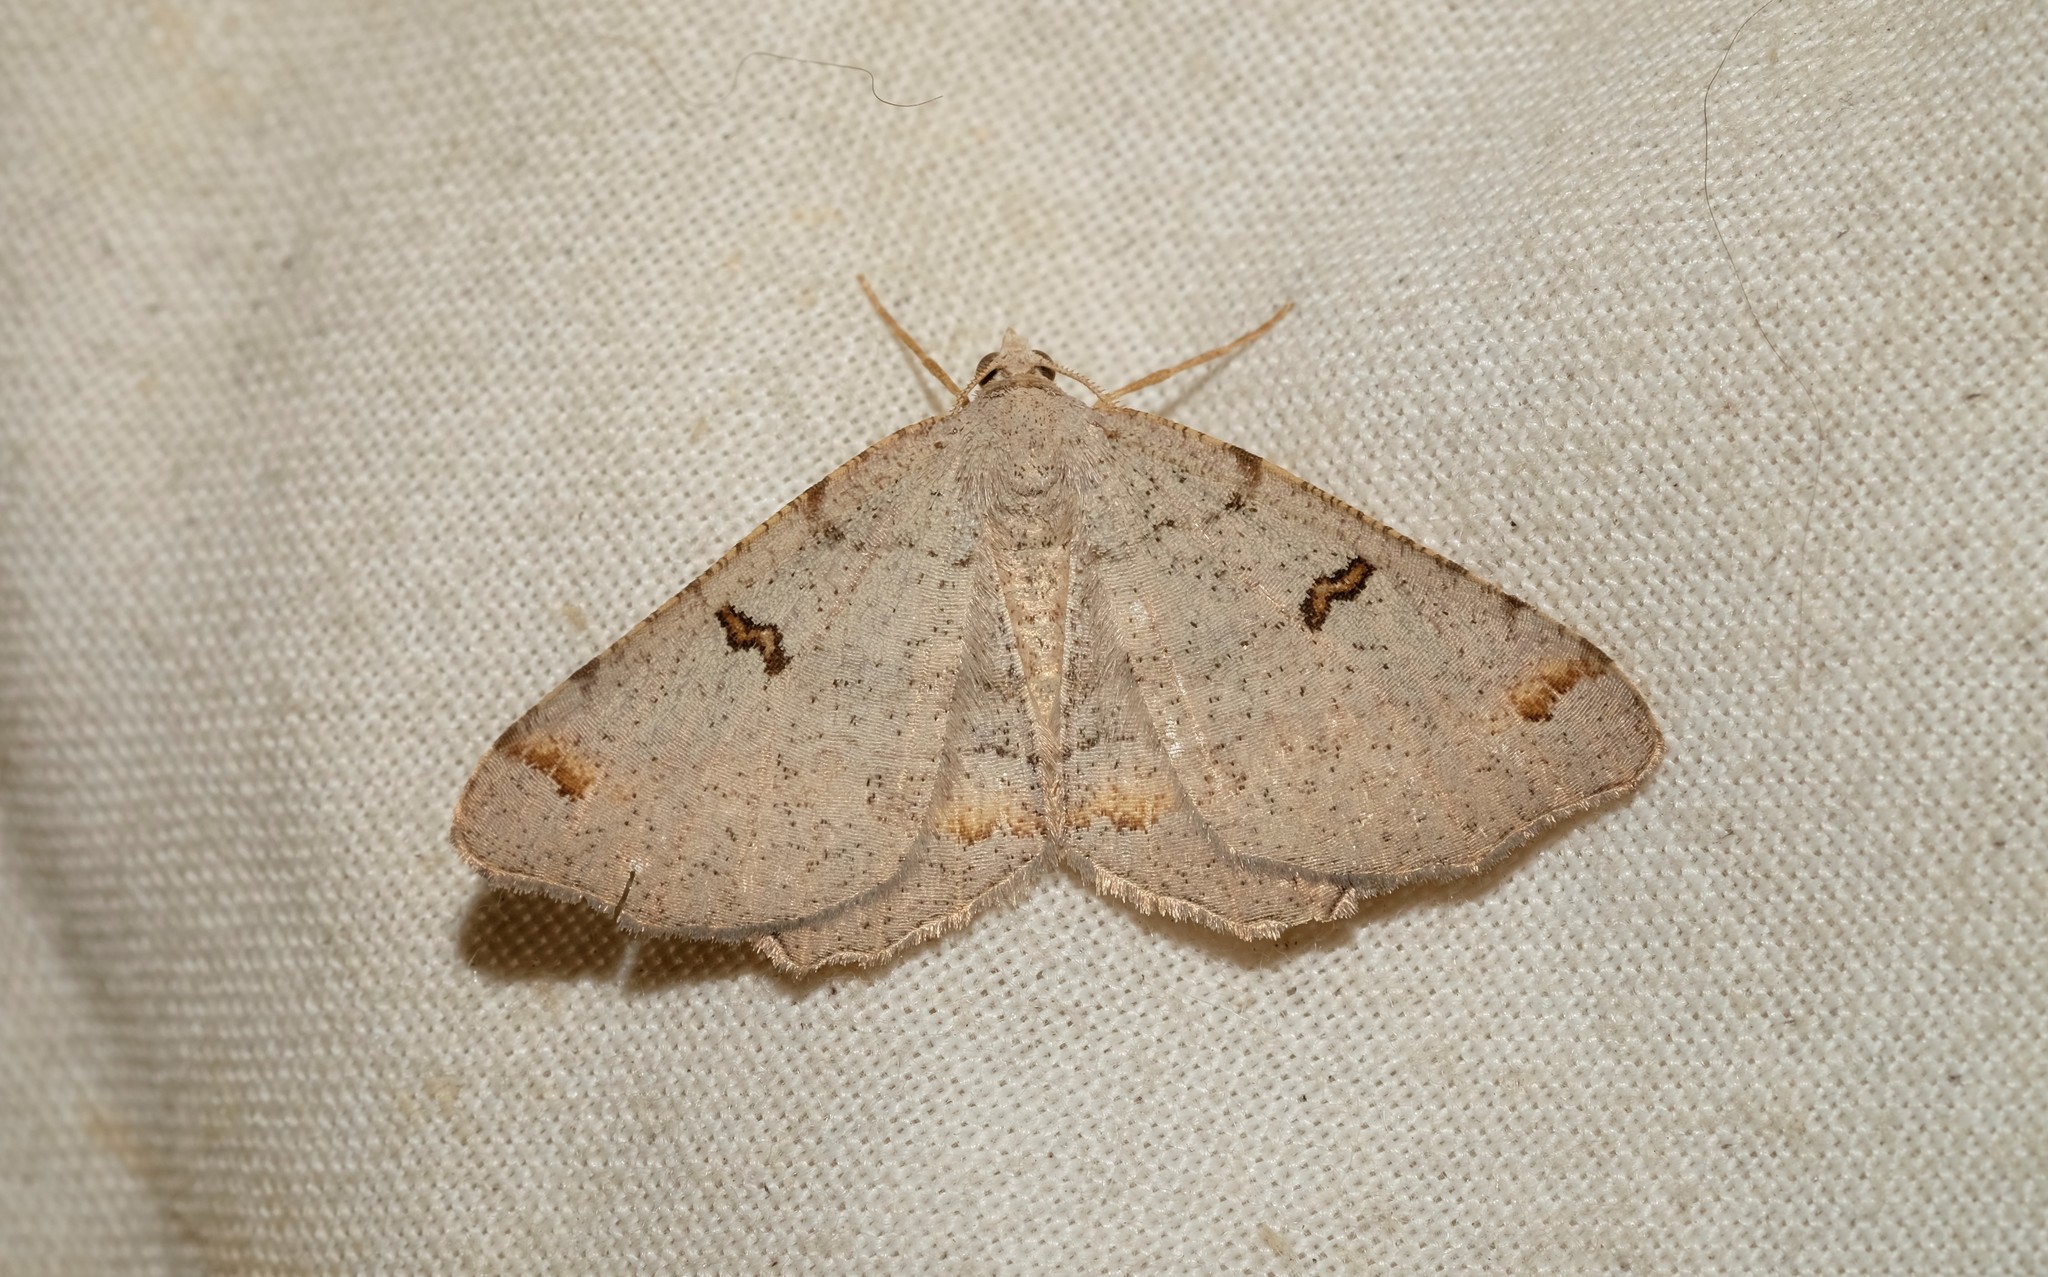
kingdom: Animalia
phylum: Arthropoda
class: Insecta
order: Lepidoptera
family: Geometridae
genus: Dissomorphia
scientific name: Dissomorphia australiaria
